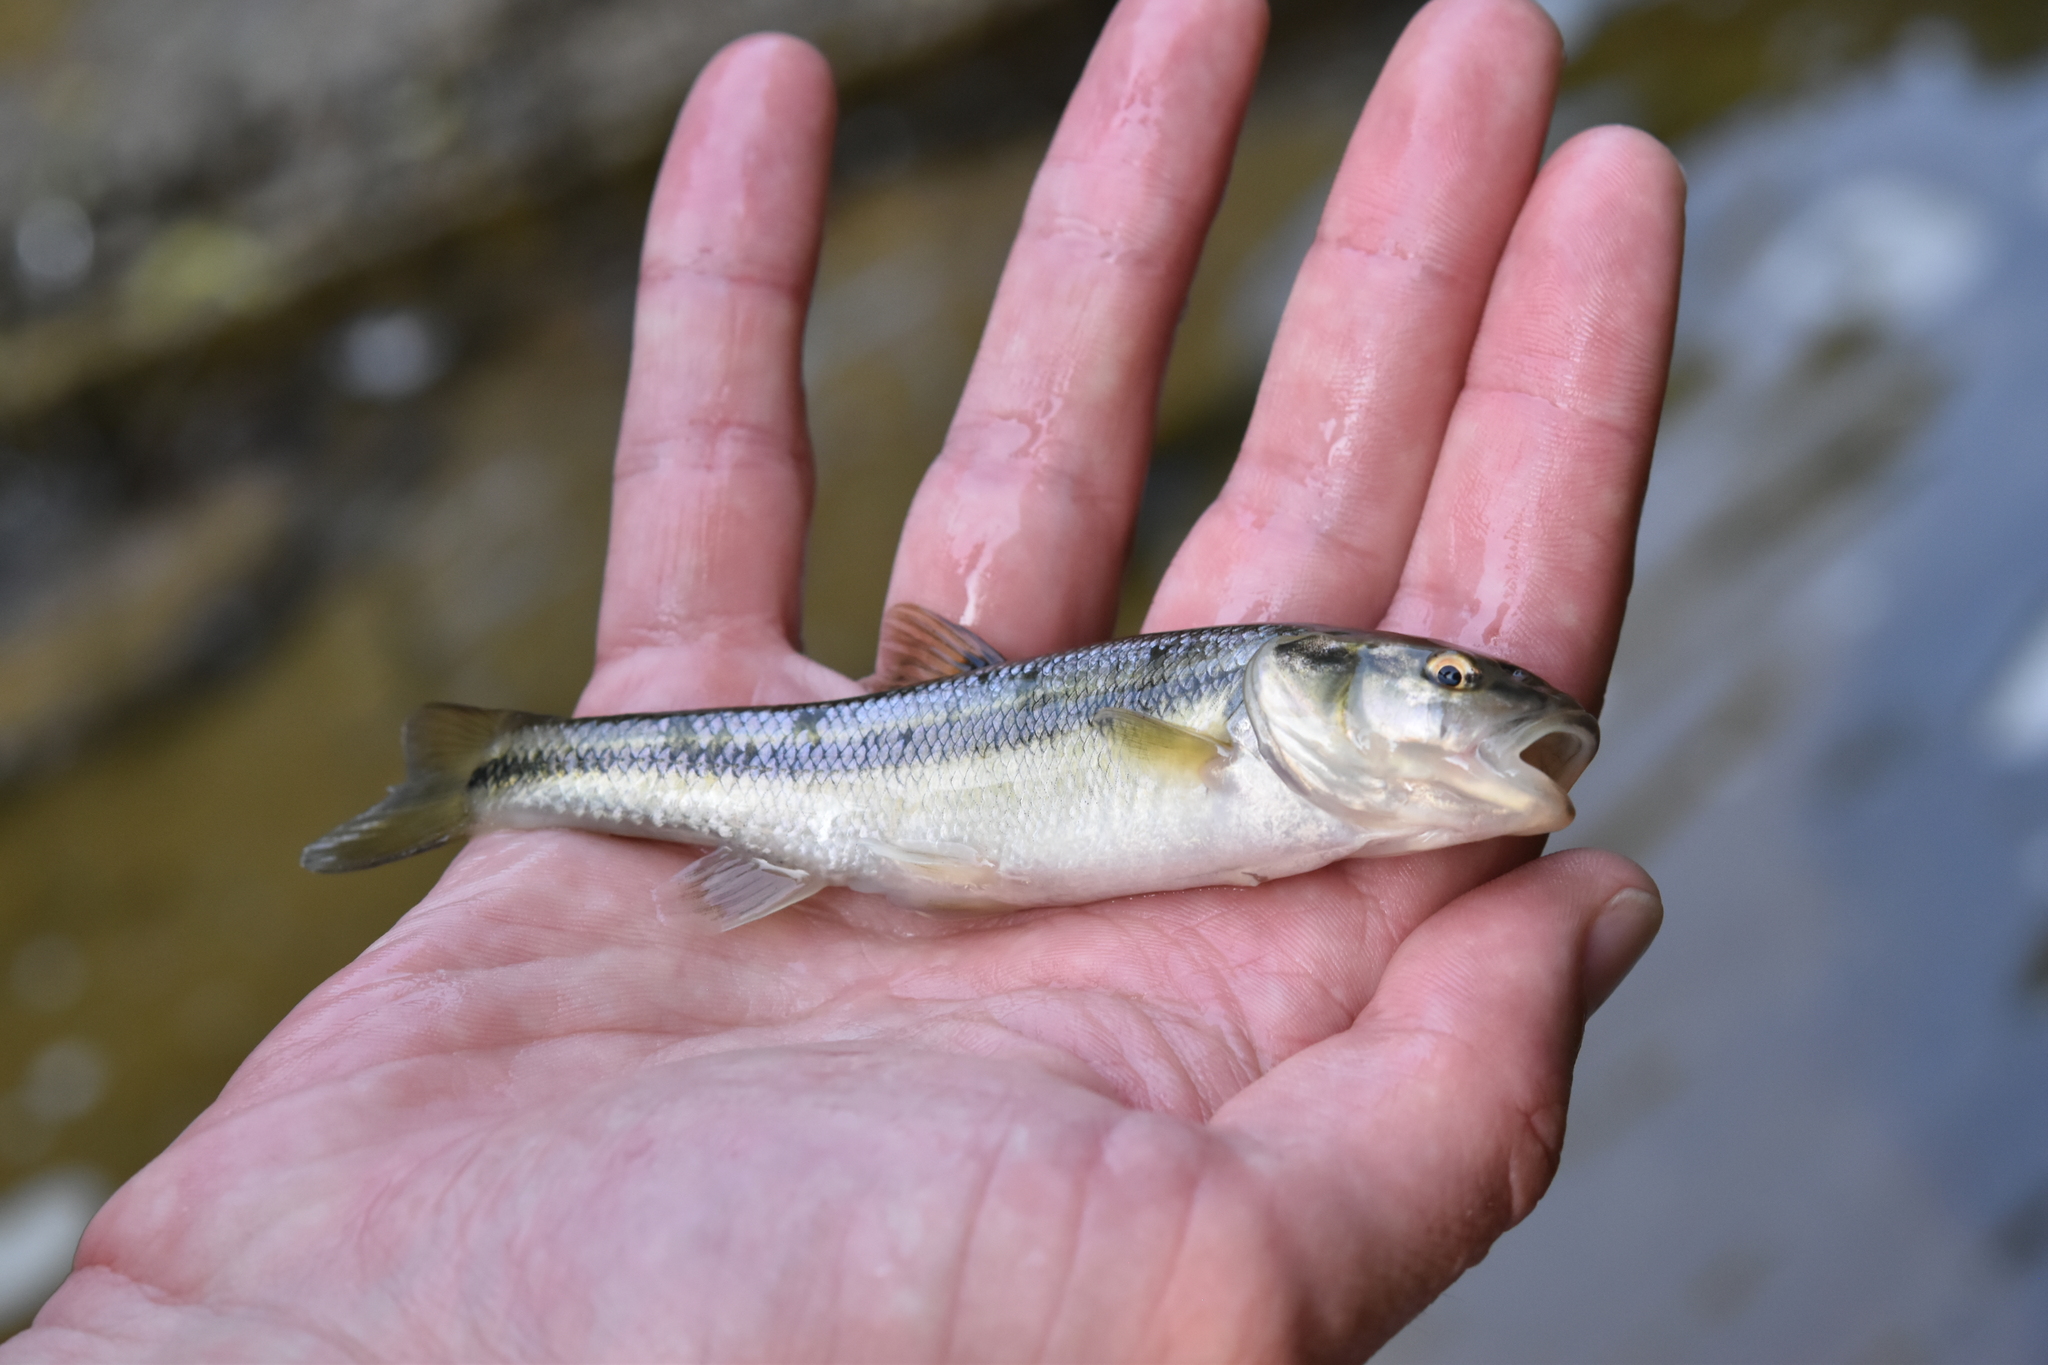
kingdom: Animalia
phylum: Chordata
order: Cypriniformes
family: Cyprinidae
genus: Semotilus
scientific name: Semotilus atromaculatus
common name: Creek chub
